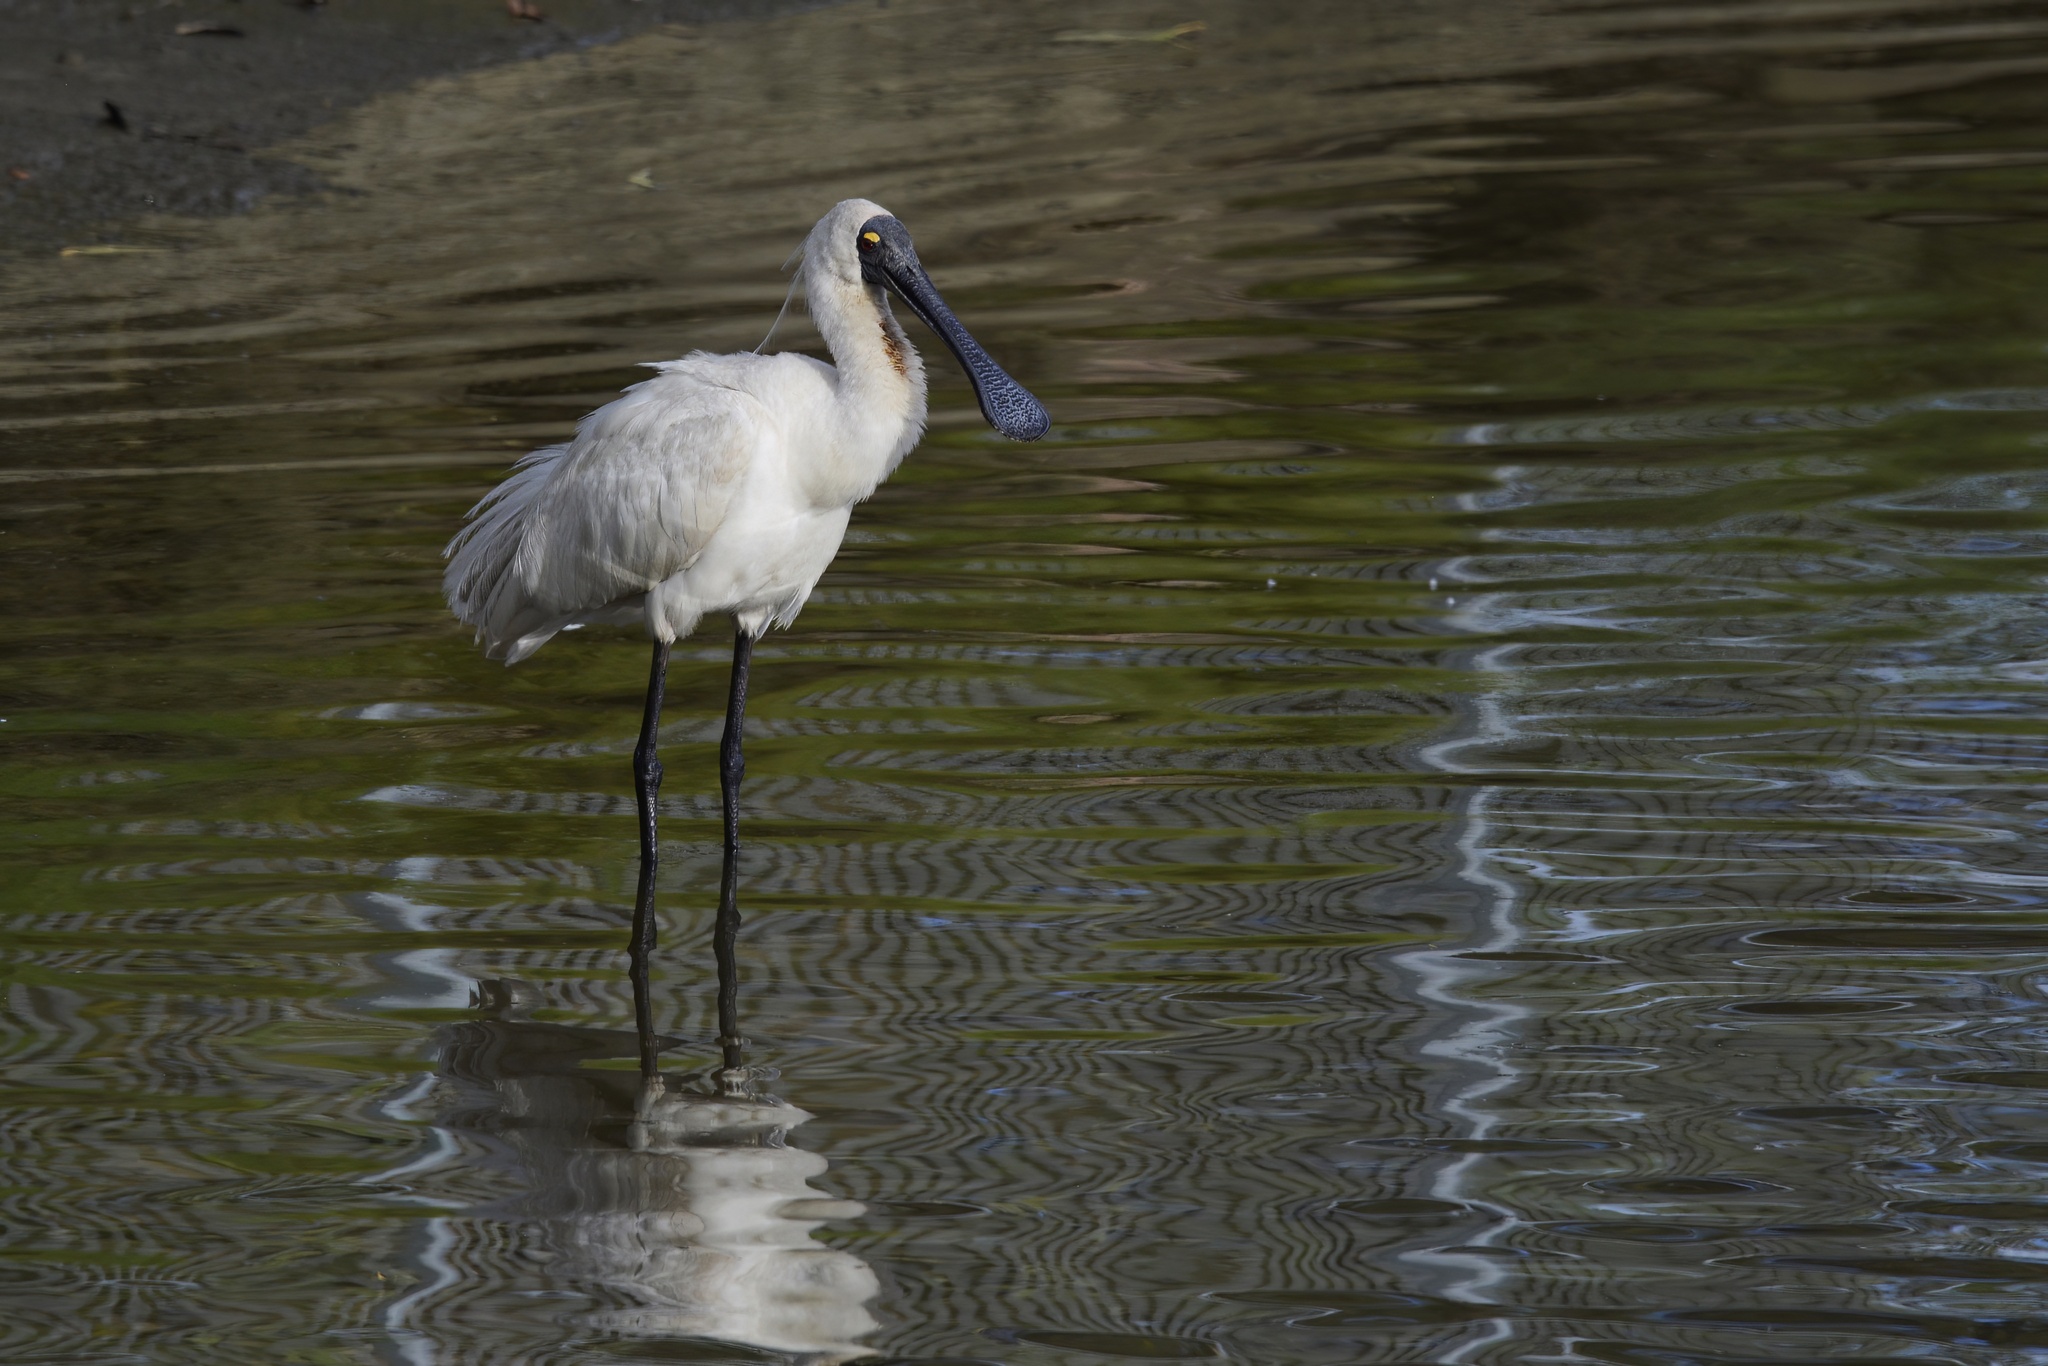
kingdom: Animalia
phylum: Chordata
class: Aves
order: Pelecaniformes
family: Threskiornithidae
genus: Platalea
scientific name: Platalea regia
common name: Royal spoonbill
